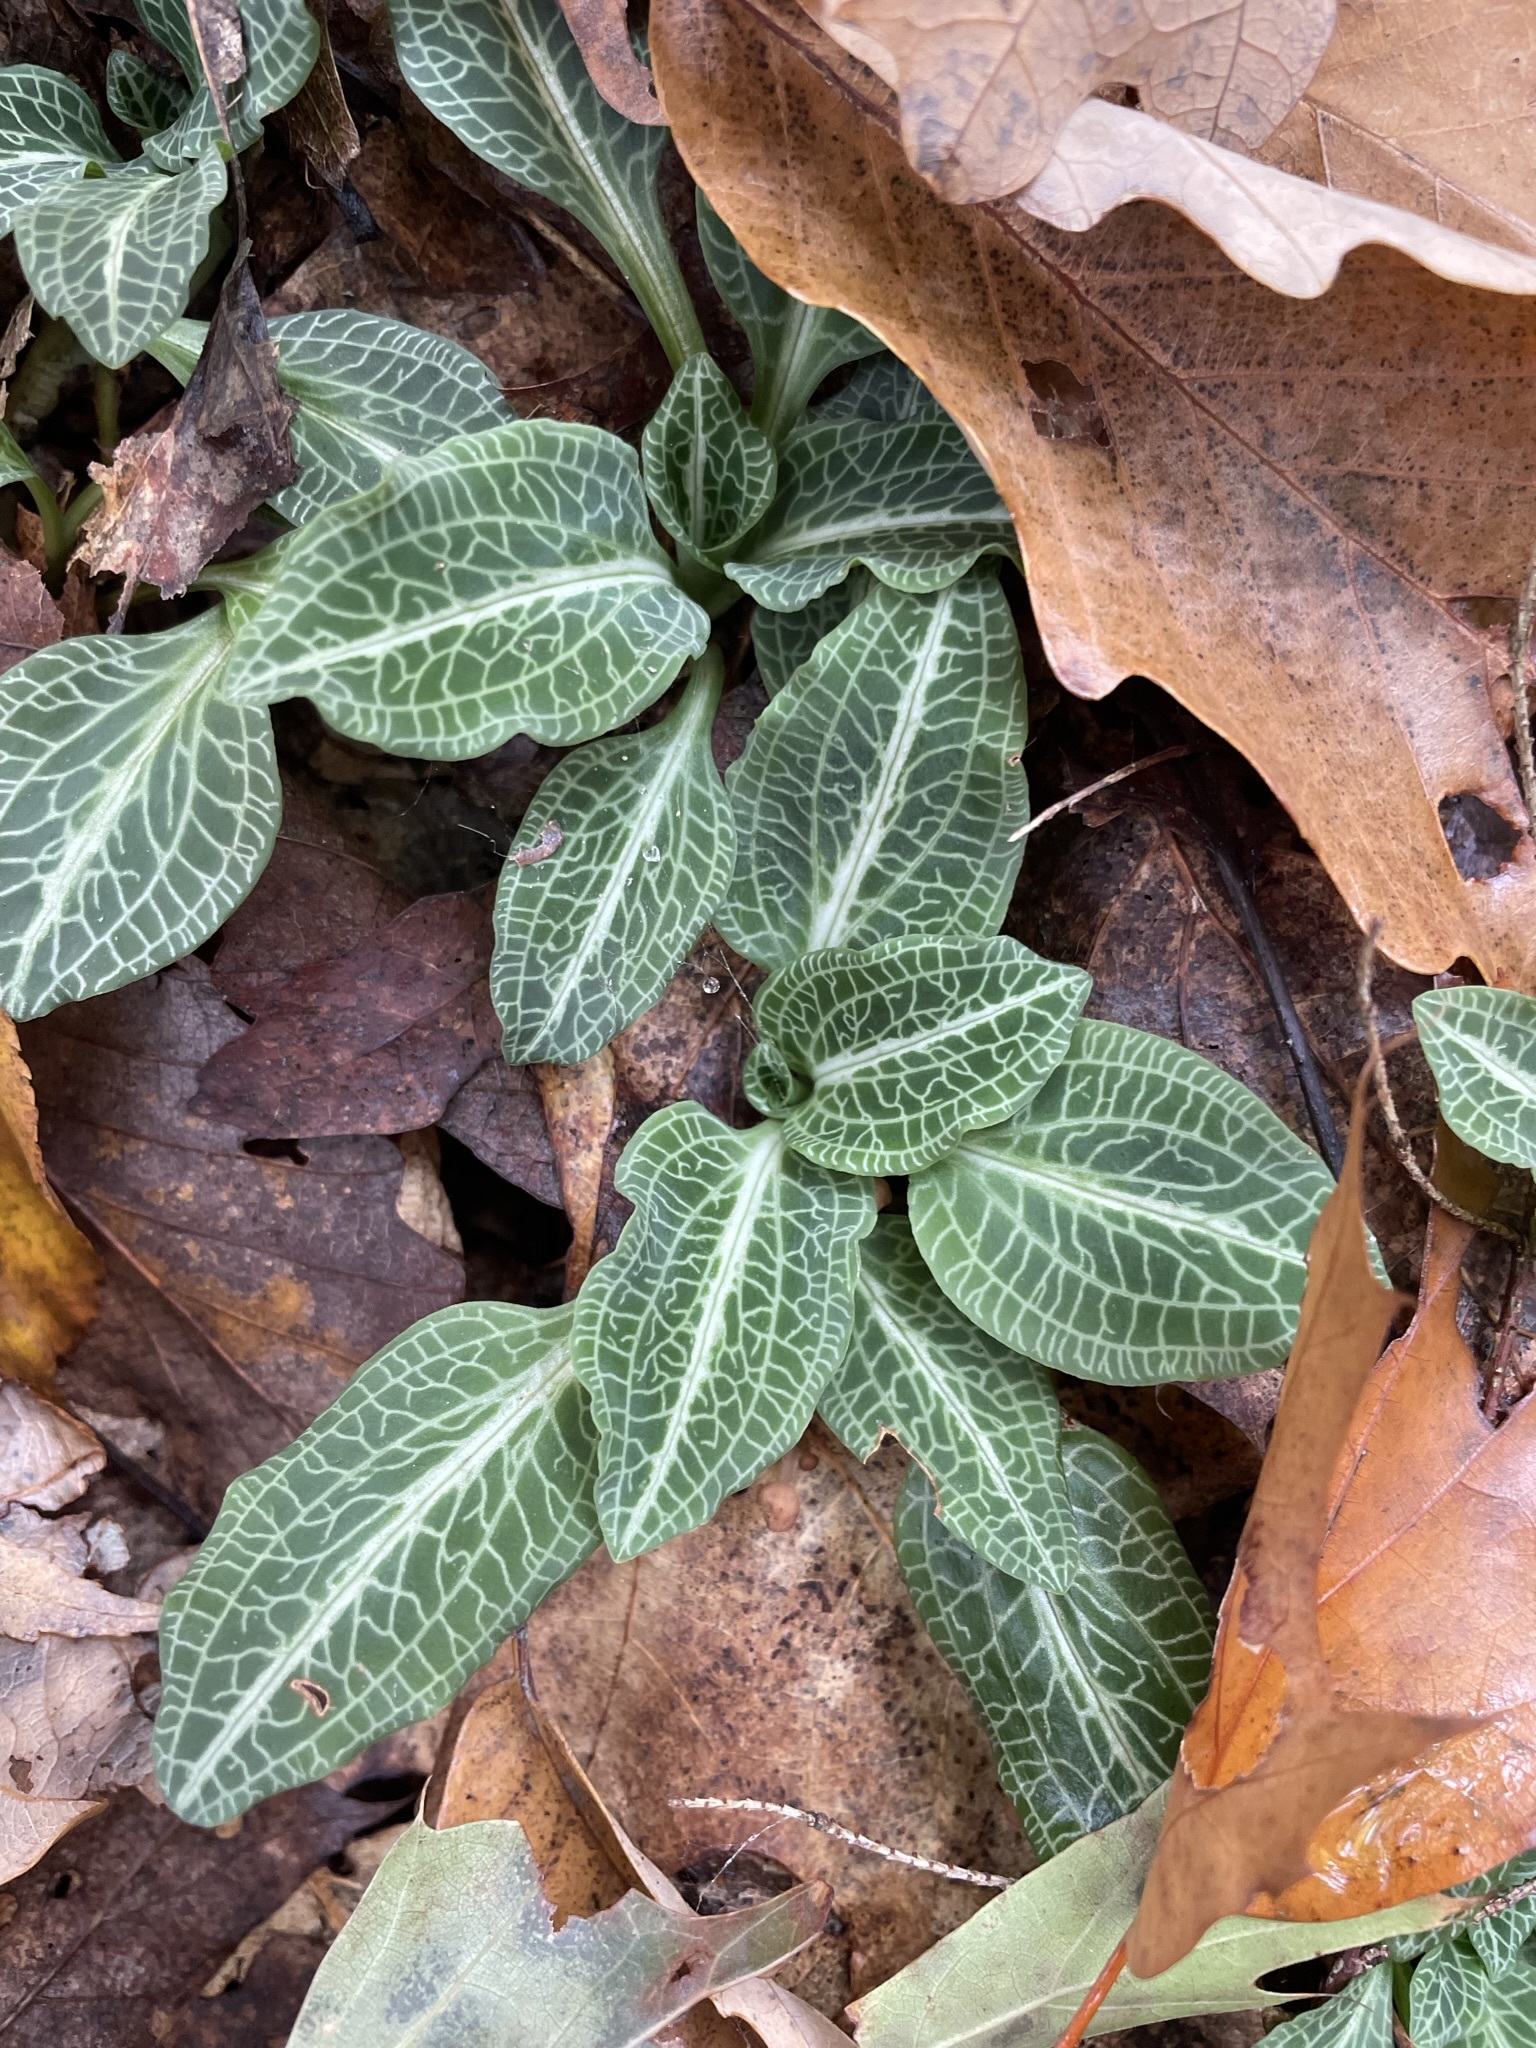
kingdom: Plantae
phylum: Tracheophyta
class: Liliopsida
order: Asparagales
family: Orchidaceae
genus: Goodyera
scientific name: Goodyera pubescens
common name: Downy rattlesnake-plantain
